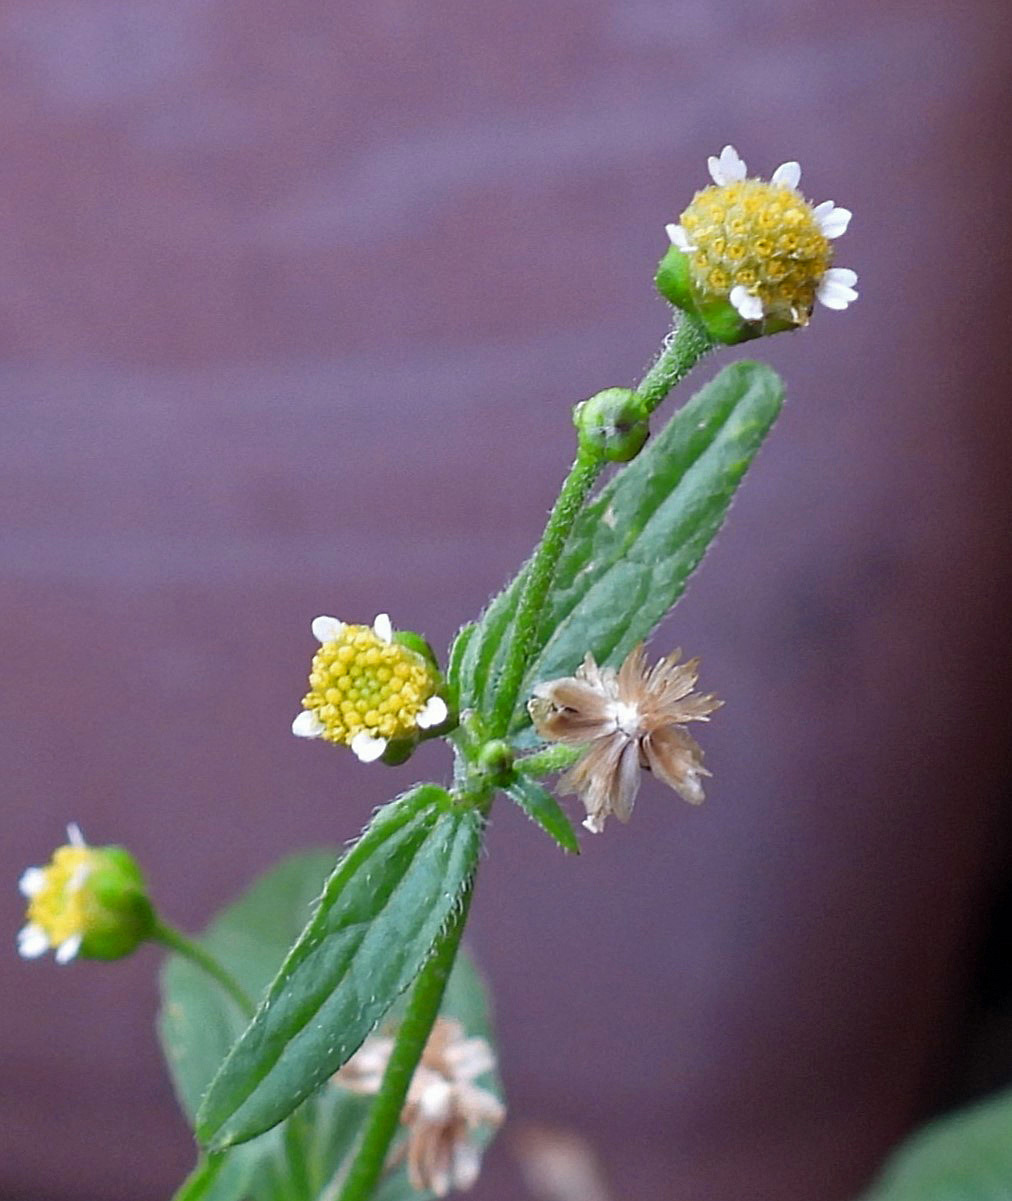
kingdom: Plantae
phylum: Tracheophyta
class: Magnoliopsida
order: Asterales
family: Asteraceae
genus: Galinsoga
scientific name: Galinsoga parviflora
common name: Gallant soldier
